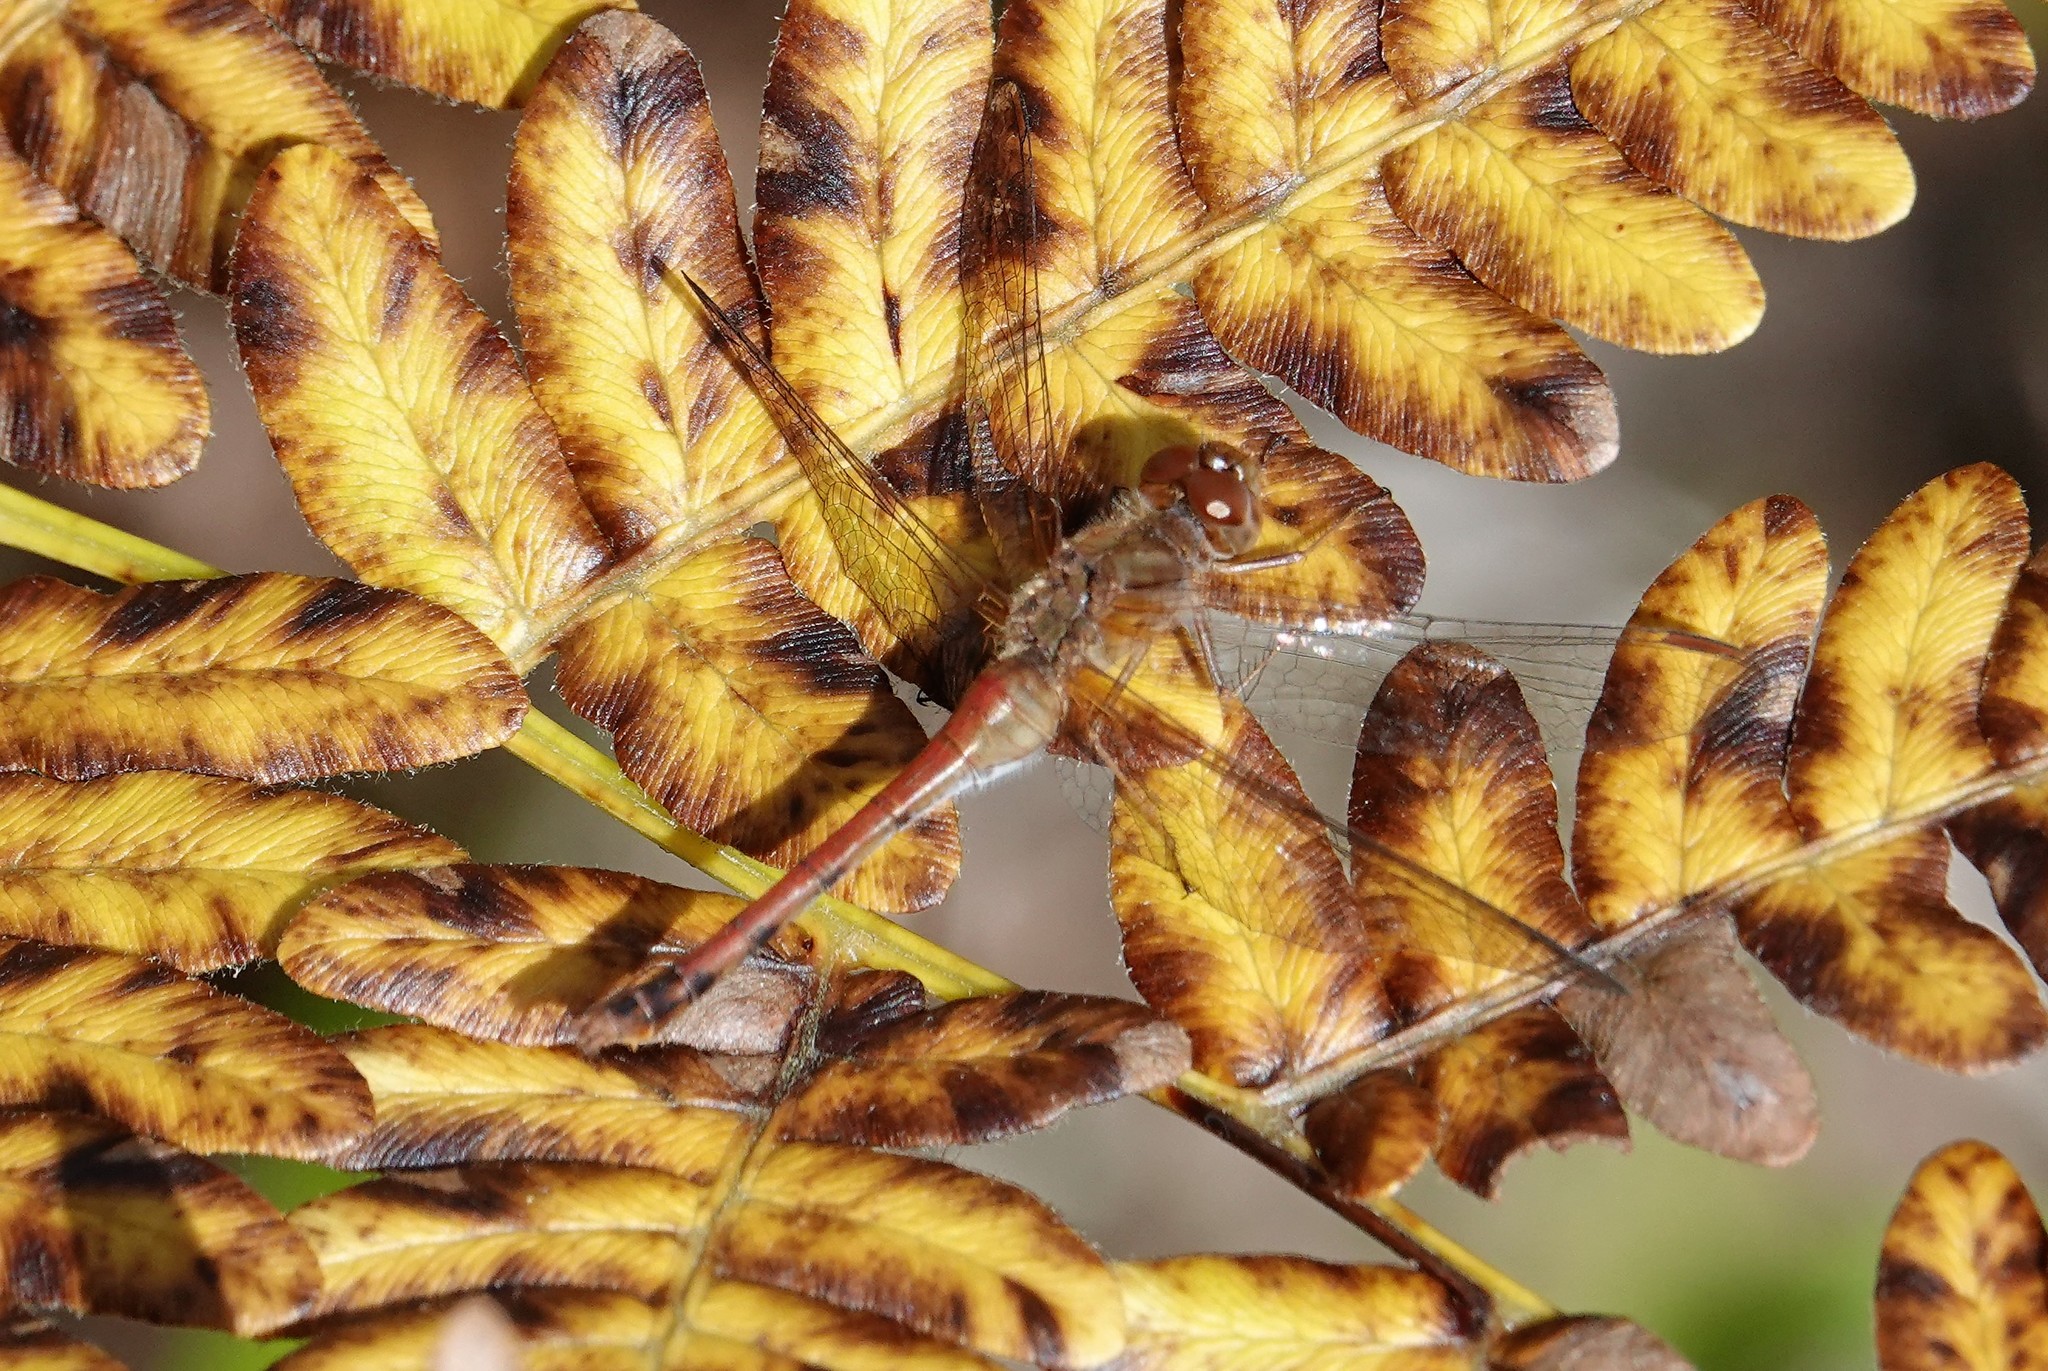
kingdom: Animalia
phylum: Arthropoda
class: Insecta
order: Odonata
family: Libellulidae
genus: Sympetrum
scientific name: Sympetrum vicinum
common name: Autumn meadowhawk
